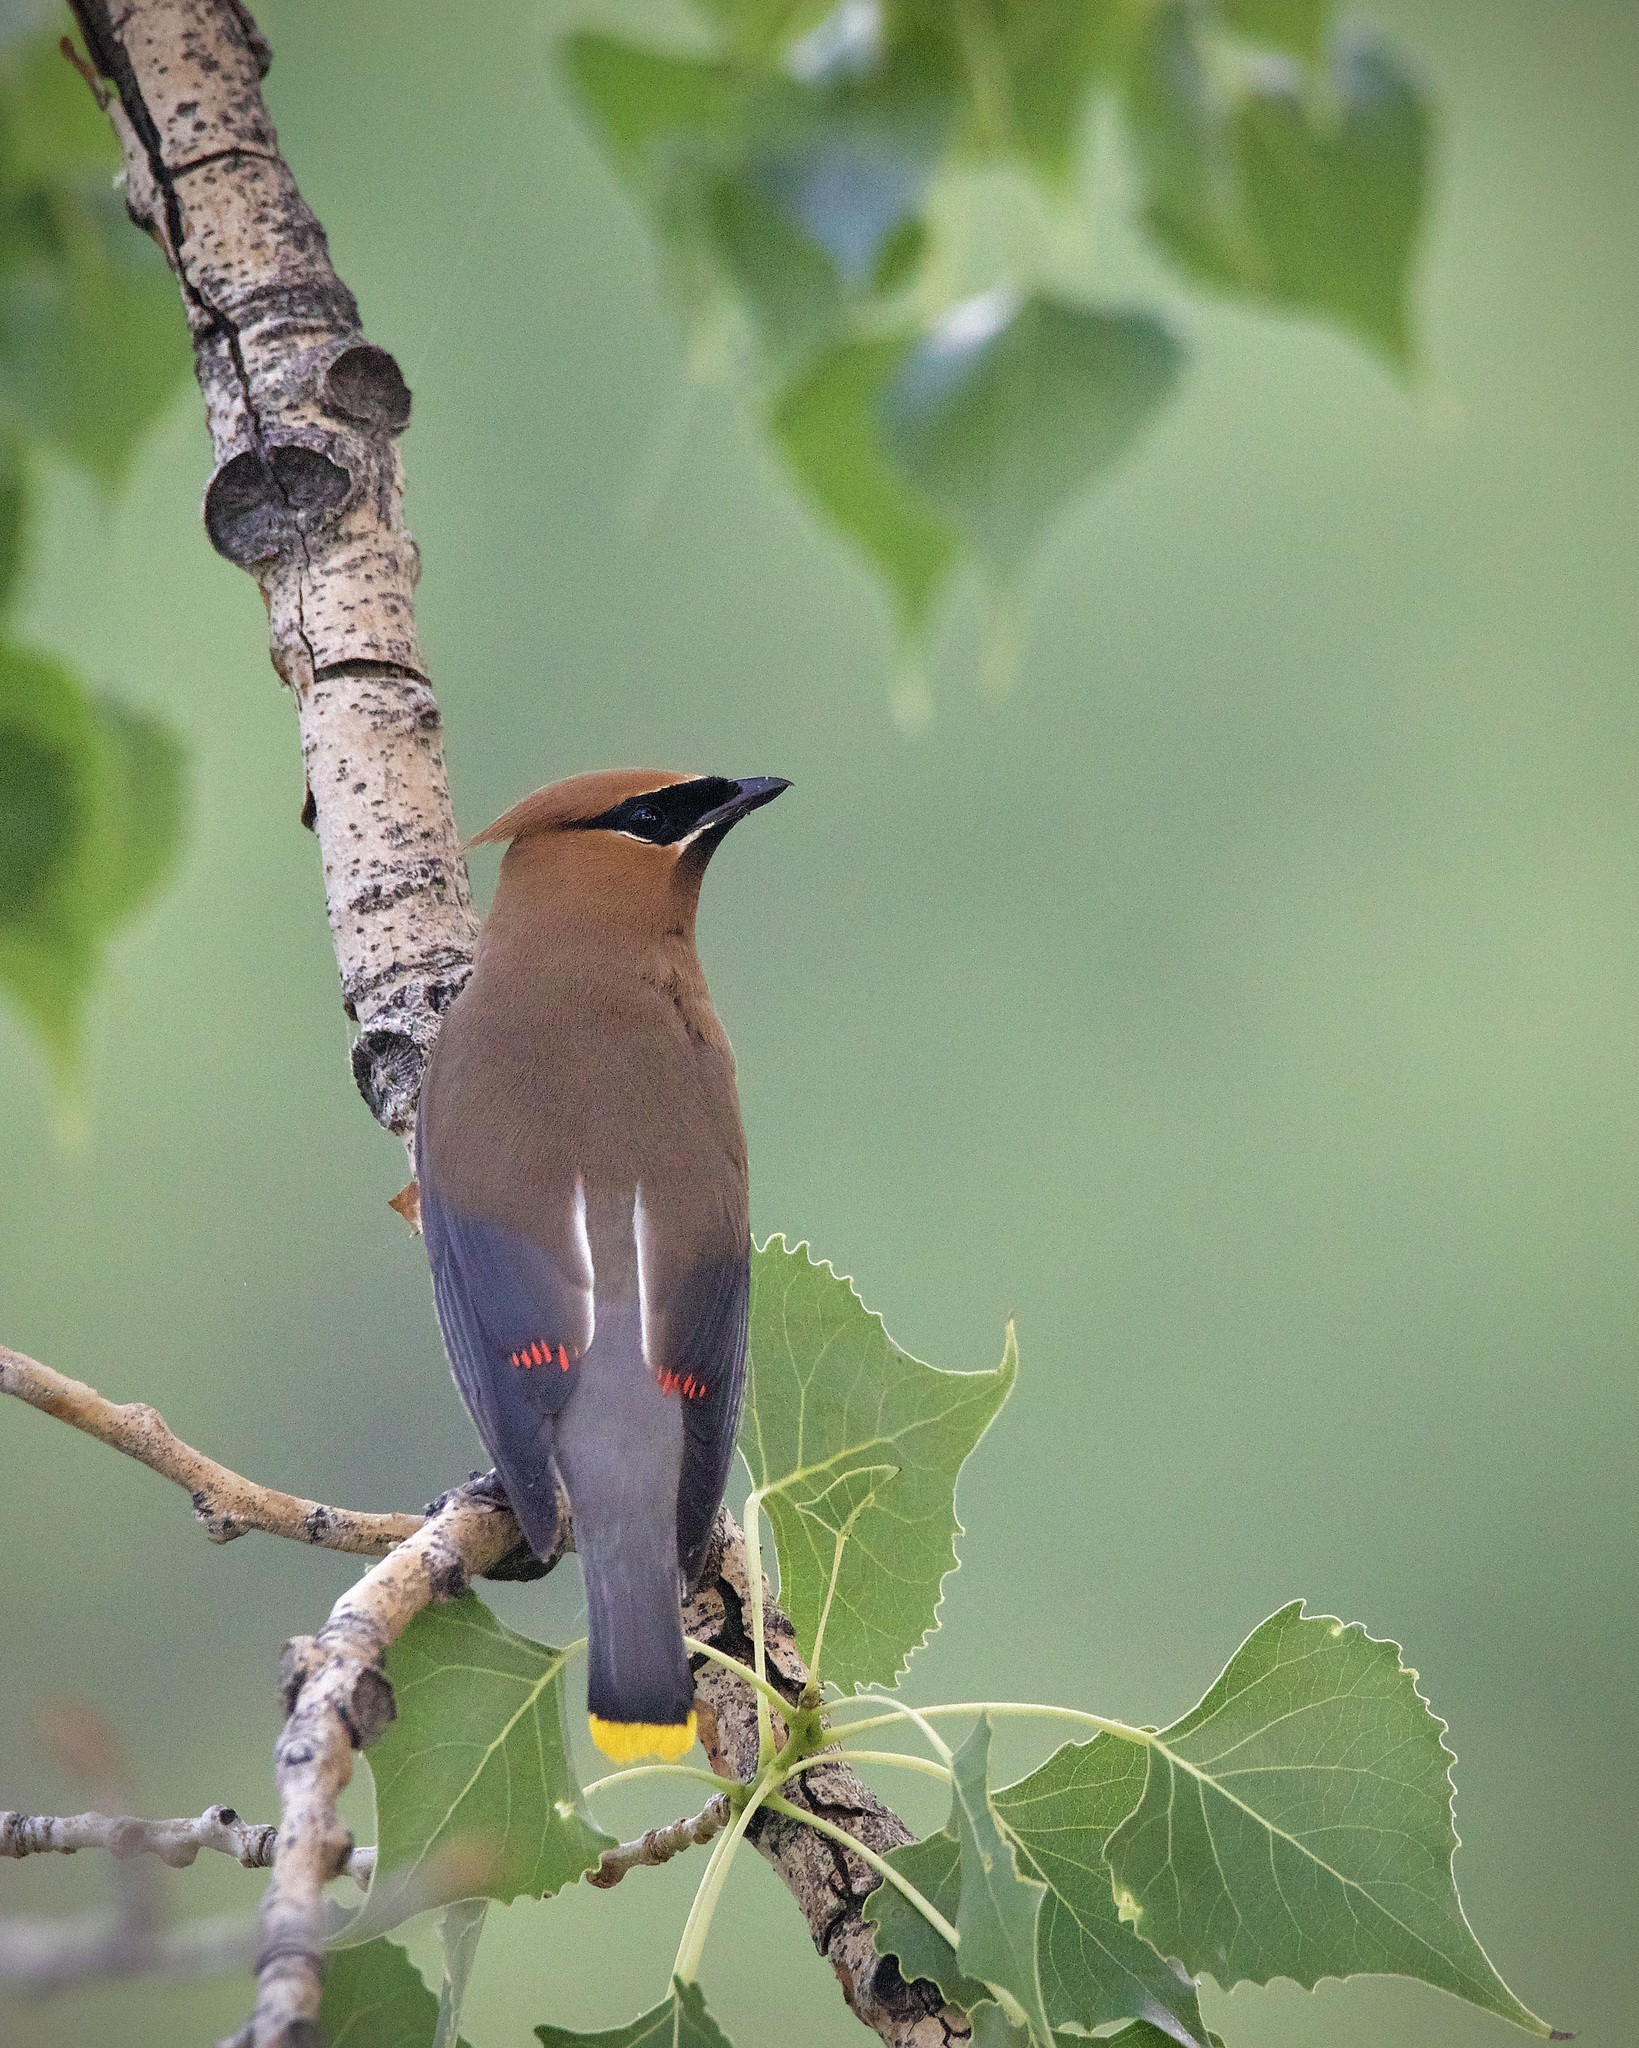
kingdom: Animalia
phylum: Chordata
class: Aves
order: Passeriformes
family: Bombycillidae
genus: Bombycilla
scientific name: Bombycilla cedrorum
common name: Cedar waxwing
